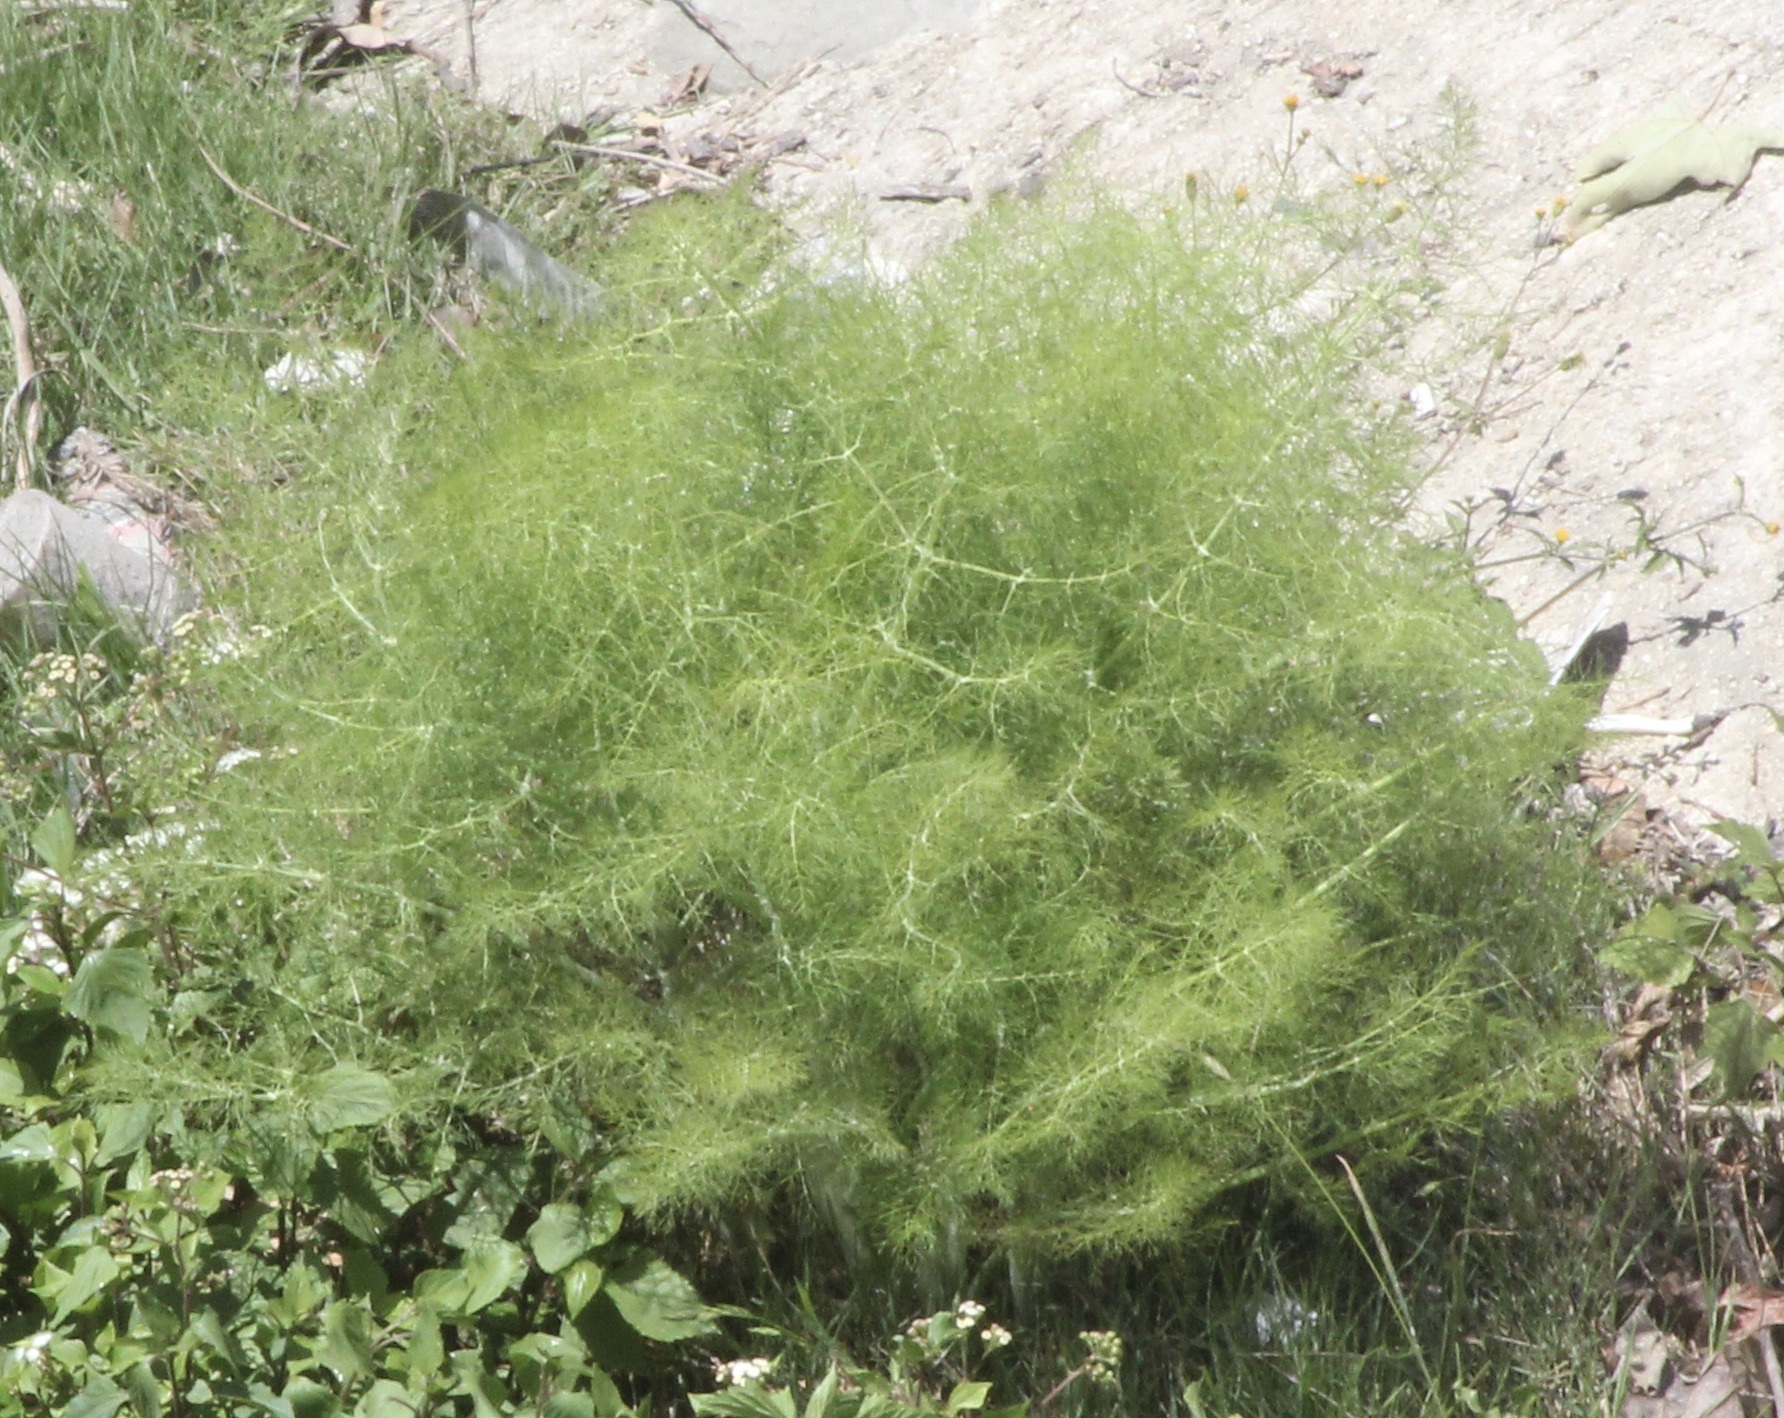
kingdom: Plantae
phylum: Tracheophyta
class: Magnoliopsida
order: Apiales
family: Apiaceae
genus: Foeniculum
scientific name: Foeniculum vulgare
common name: Fennel
